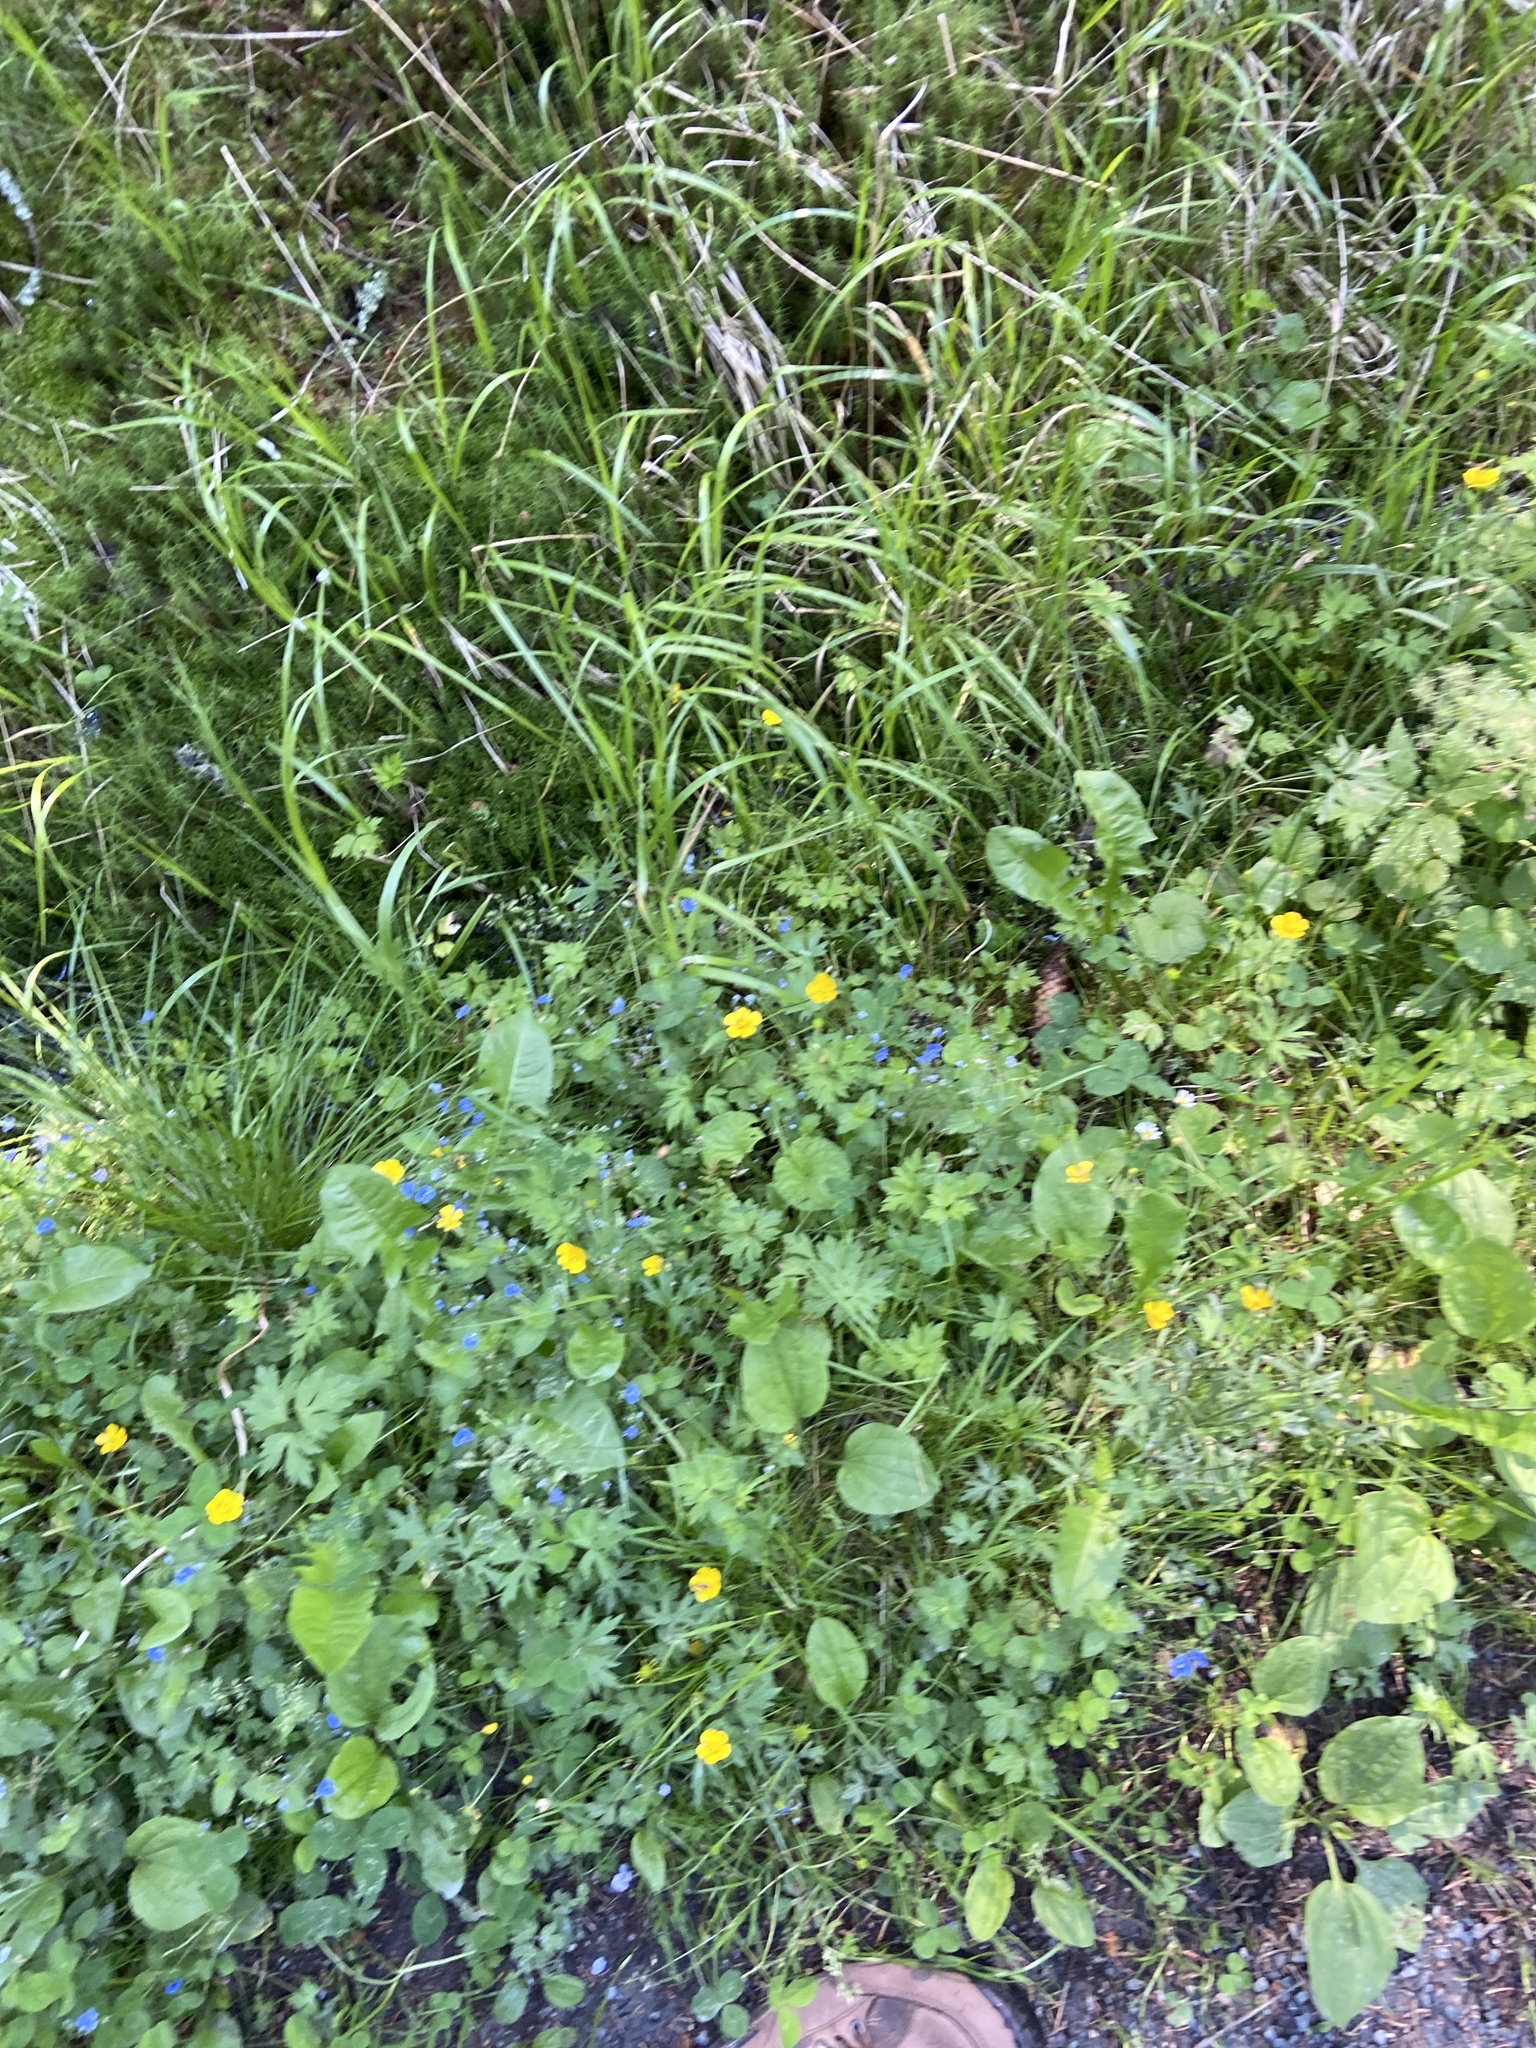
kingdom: Plantae
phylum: Tracheophyta
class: Magnoliopsida
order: Lamiales
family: Plantaginaceae
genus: Veronica
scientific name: Veronica chamaedrys
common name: Germander speedwell
